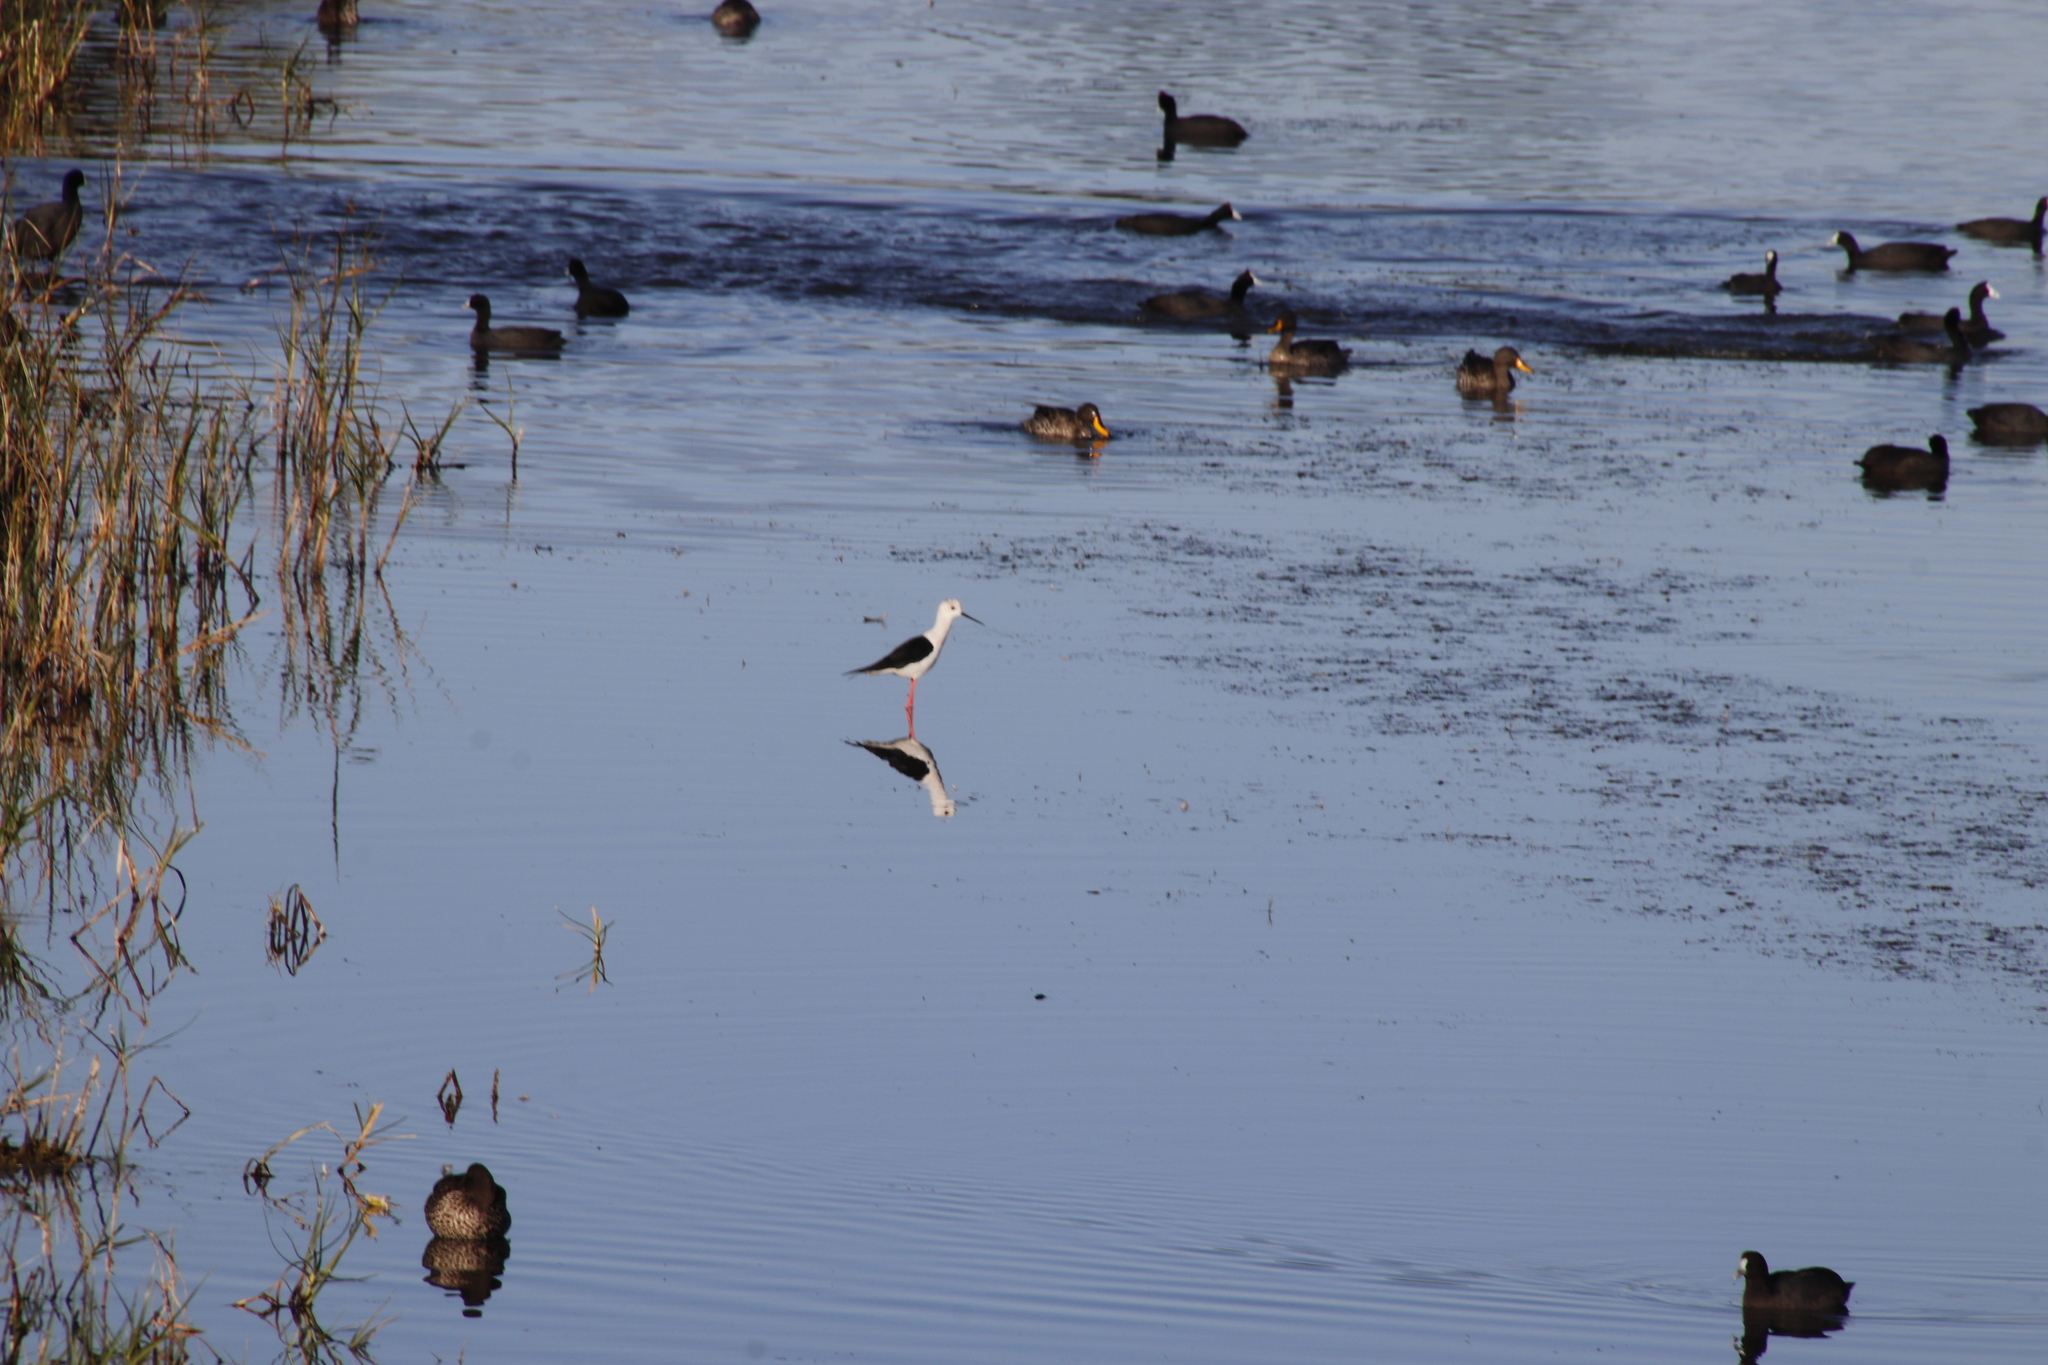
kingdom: Animalia
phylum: Chordata
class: Aves
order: Charadriiformes
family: Recurvirostridae
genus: Himantopus
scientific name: Himantopus himantopus
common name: Black-winged stilt
